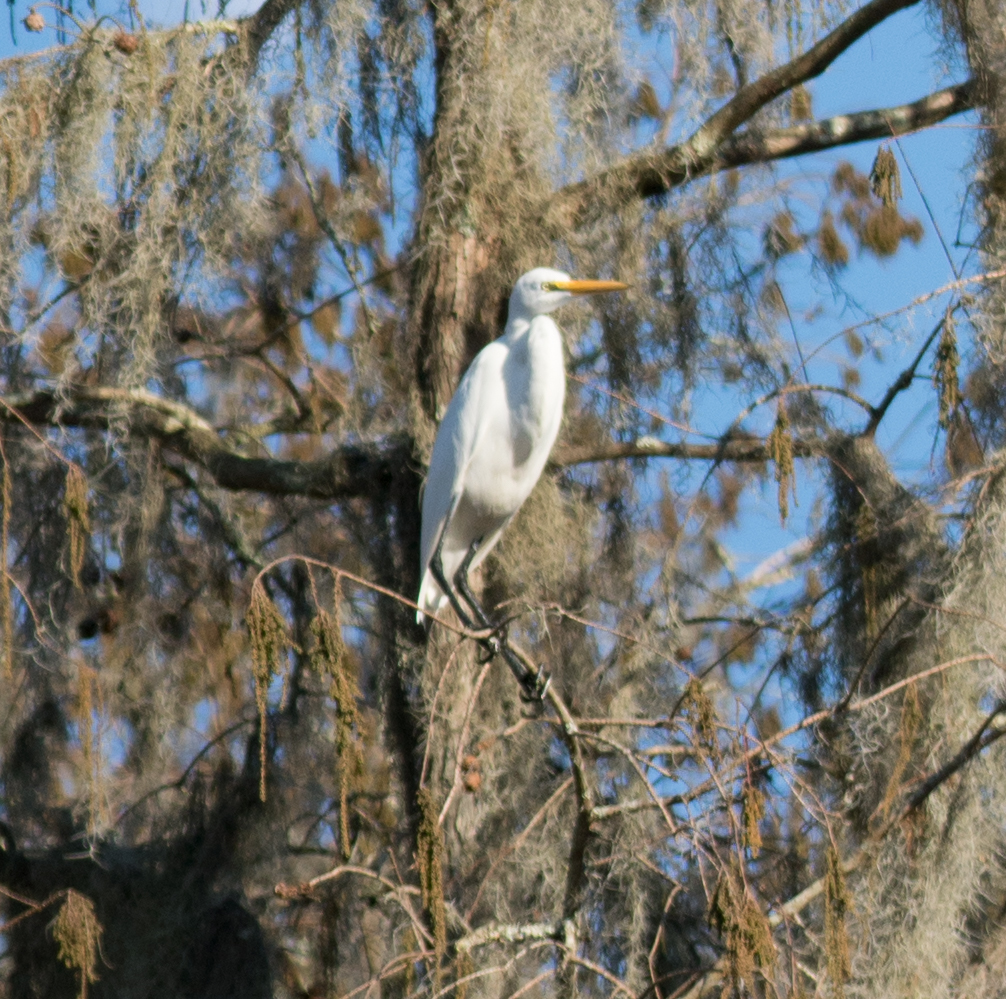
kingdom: Animalia
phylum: Chordata
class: Aves
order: Pelecaniformes
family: Ardeidae
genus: Ardea
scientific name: Ardea alba
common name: Great egret
